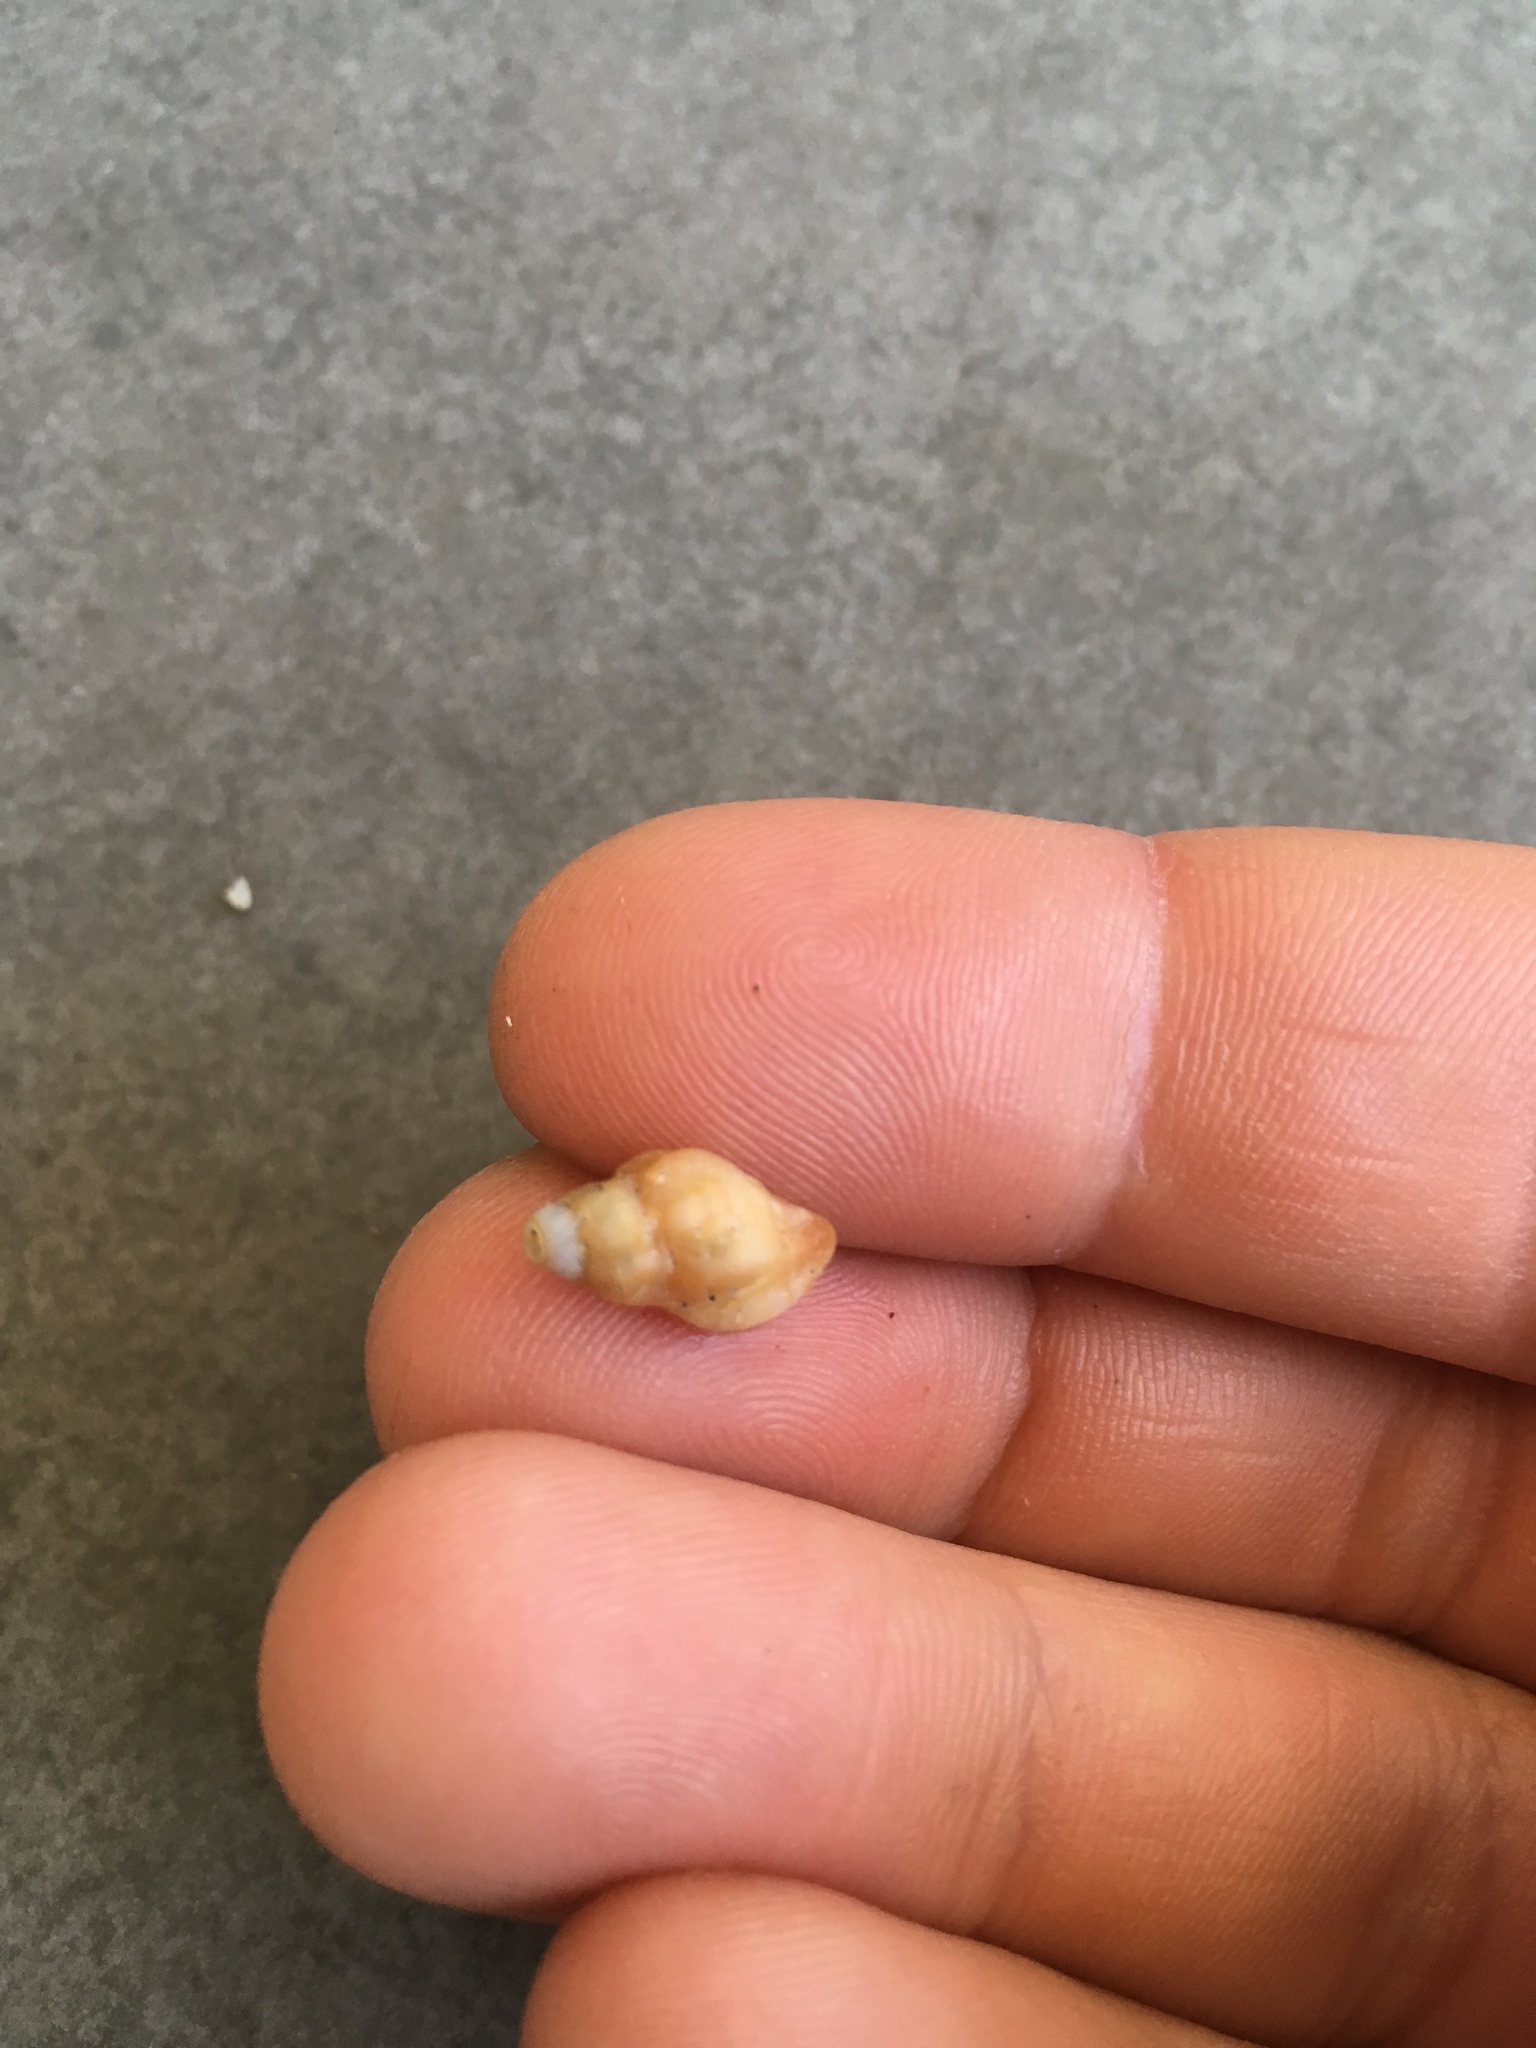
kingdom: Animalia
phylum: Mollusca
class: Gastropoda
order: Neogastropoda
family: Muricidae
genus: Muricopsis
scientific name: Muricopsis necocheana
